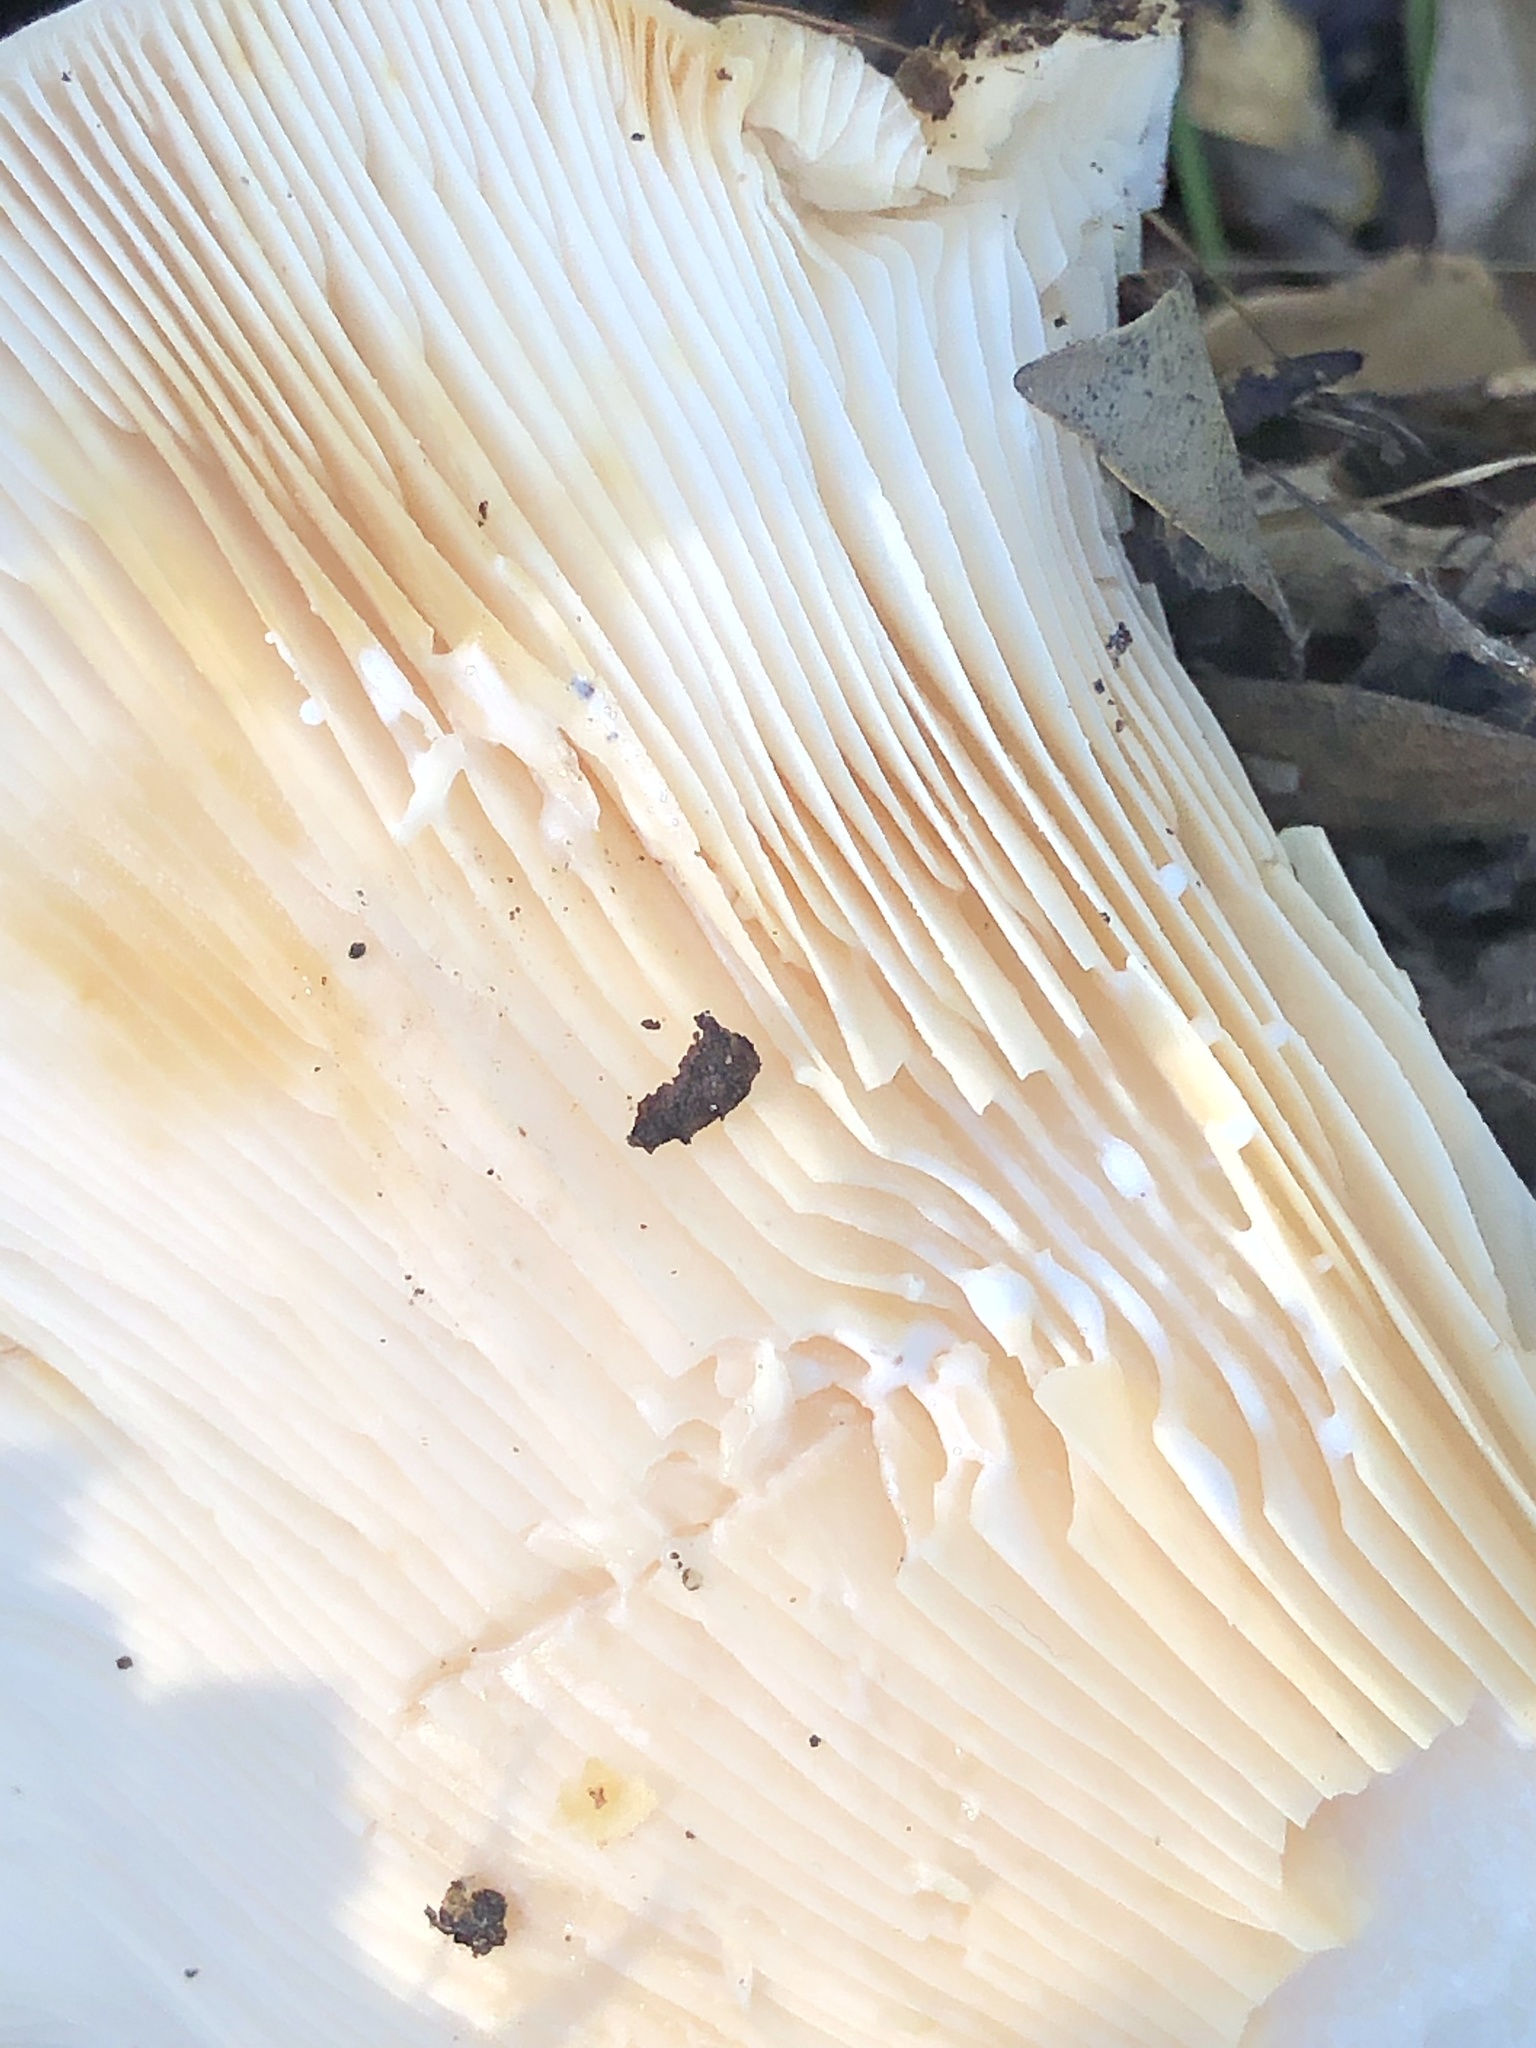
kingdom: Fungi
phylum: Basidiomycota
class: Agaricomycetes
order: Russulales
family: Russulaceae
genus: Lactarius
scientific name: Lactarius alnicola
